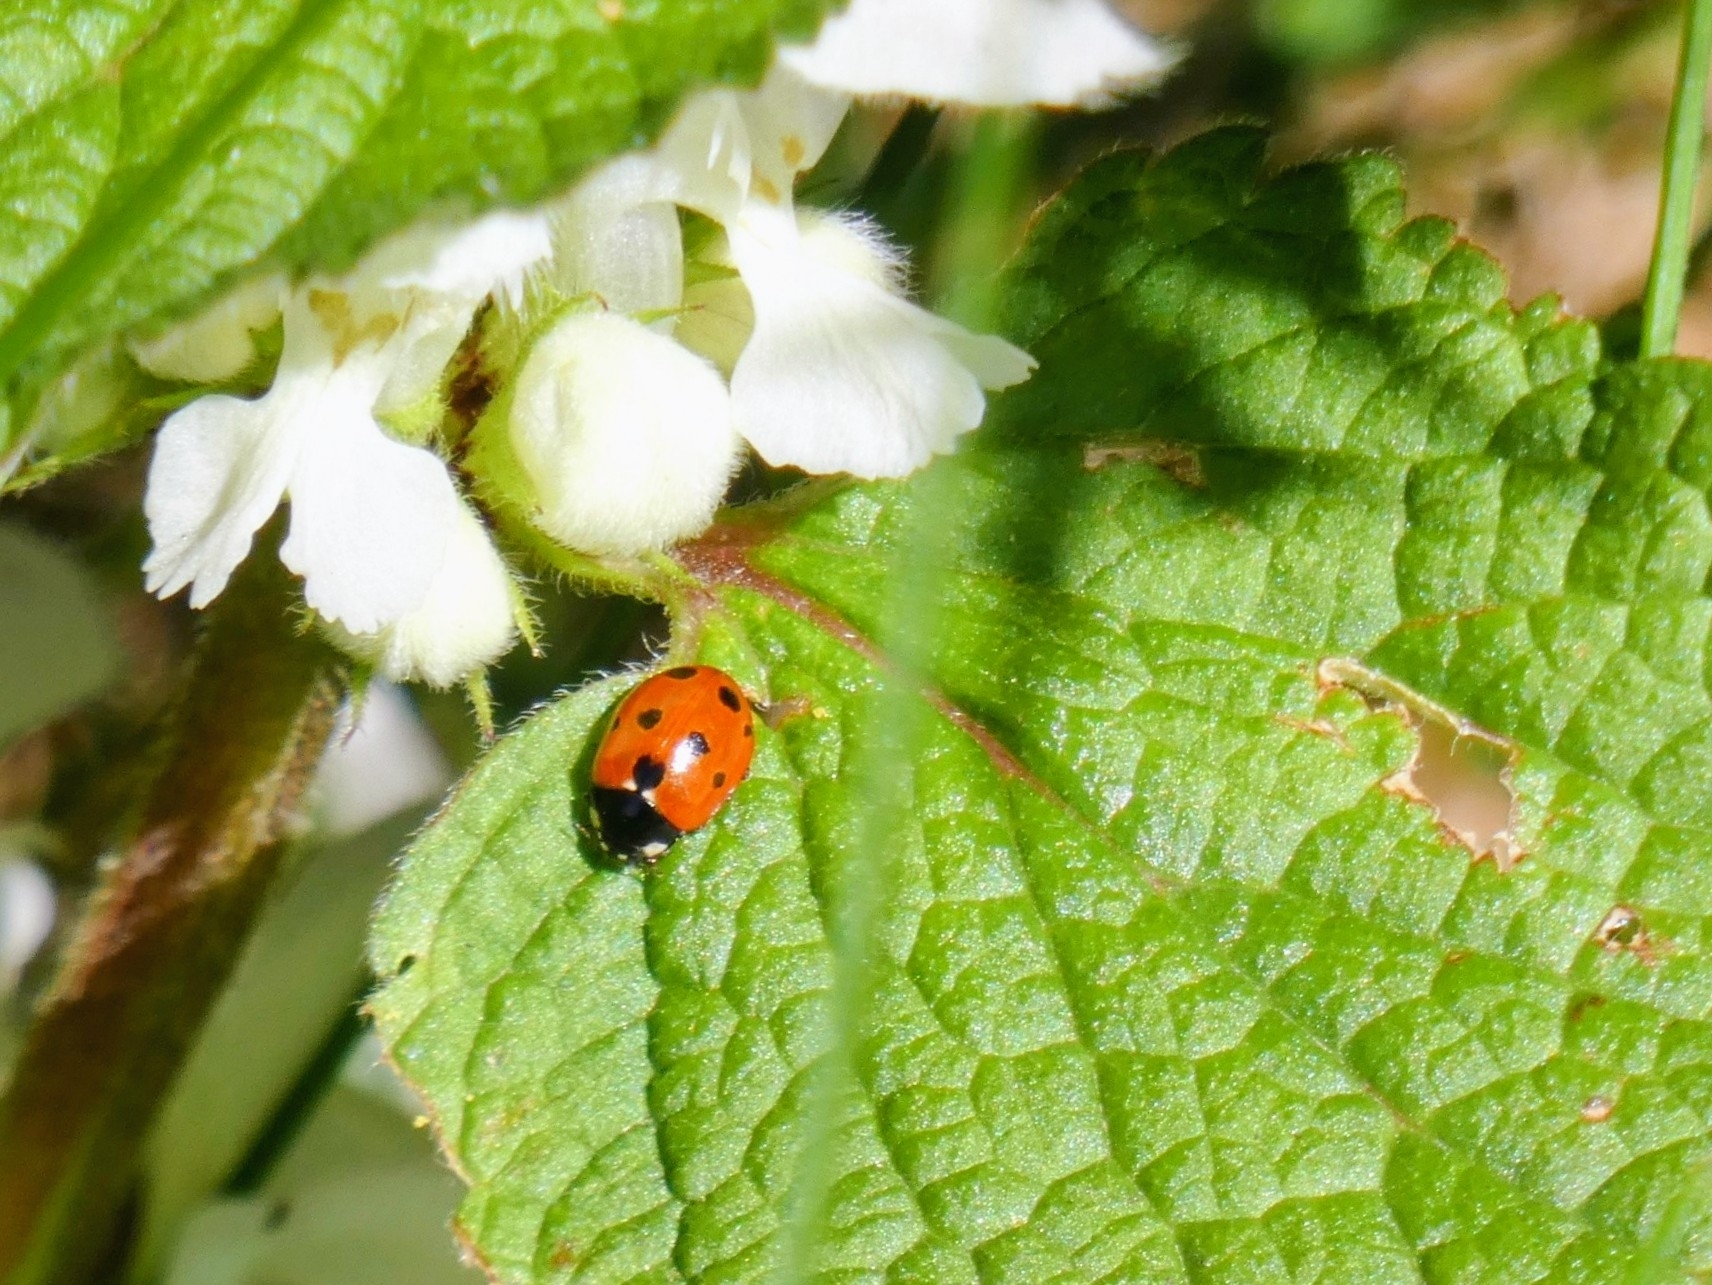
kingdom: Animalia
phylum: Arthropoda
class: Insecta
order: Coleoptera
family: Coccinellidae
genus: Coccinella
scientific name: Coccinella undecimpunctata
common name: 11-spot ladybird
